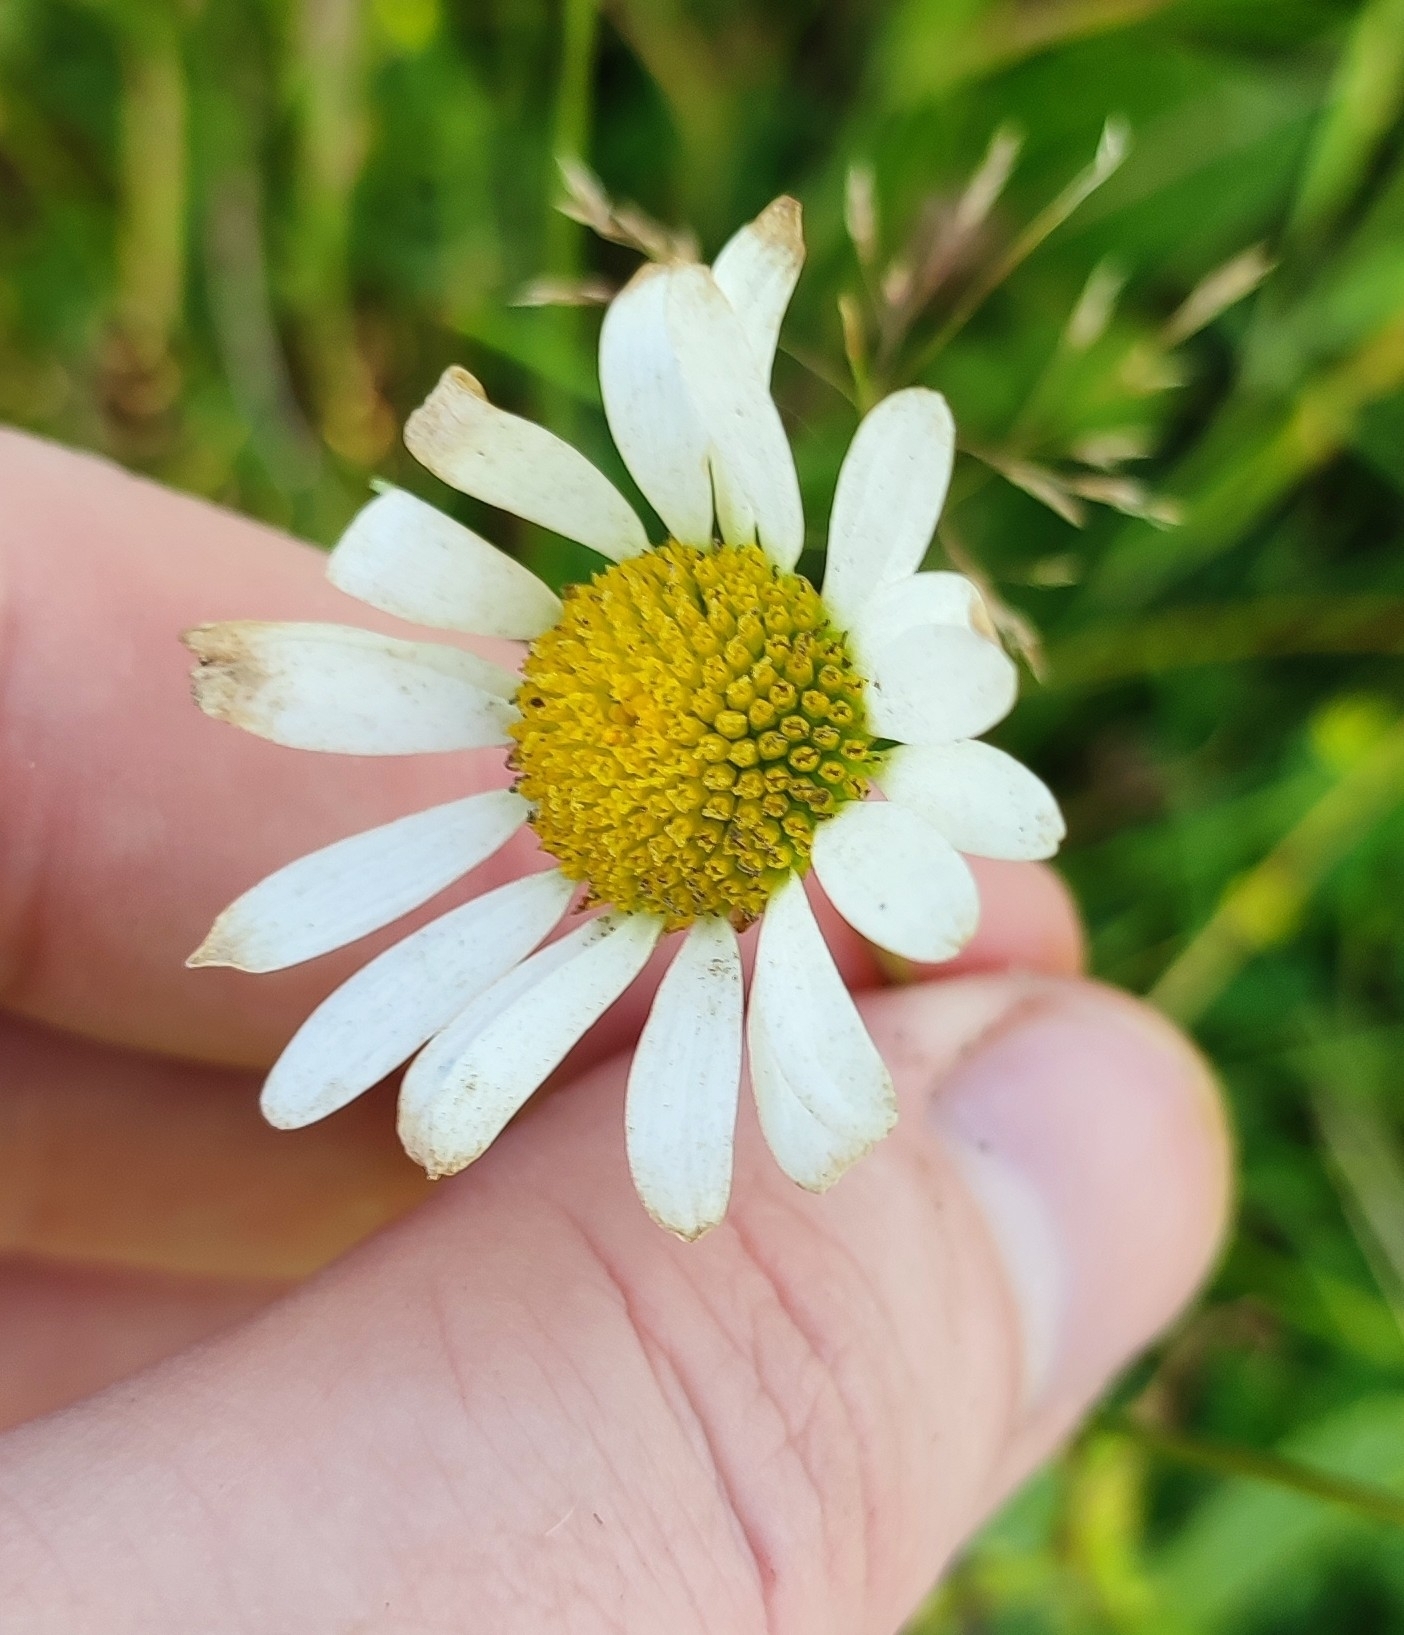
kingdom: Plantae
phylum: Tracheophyta
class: Magnoliopsida
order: Asterales
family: Asteraceae
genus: Leucanthemum
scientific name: Leucanthemum ircutianum
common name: Daisy
